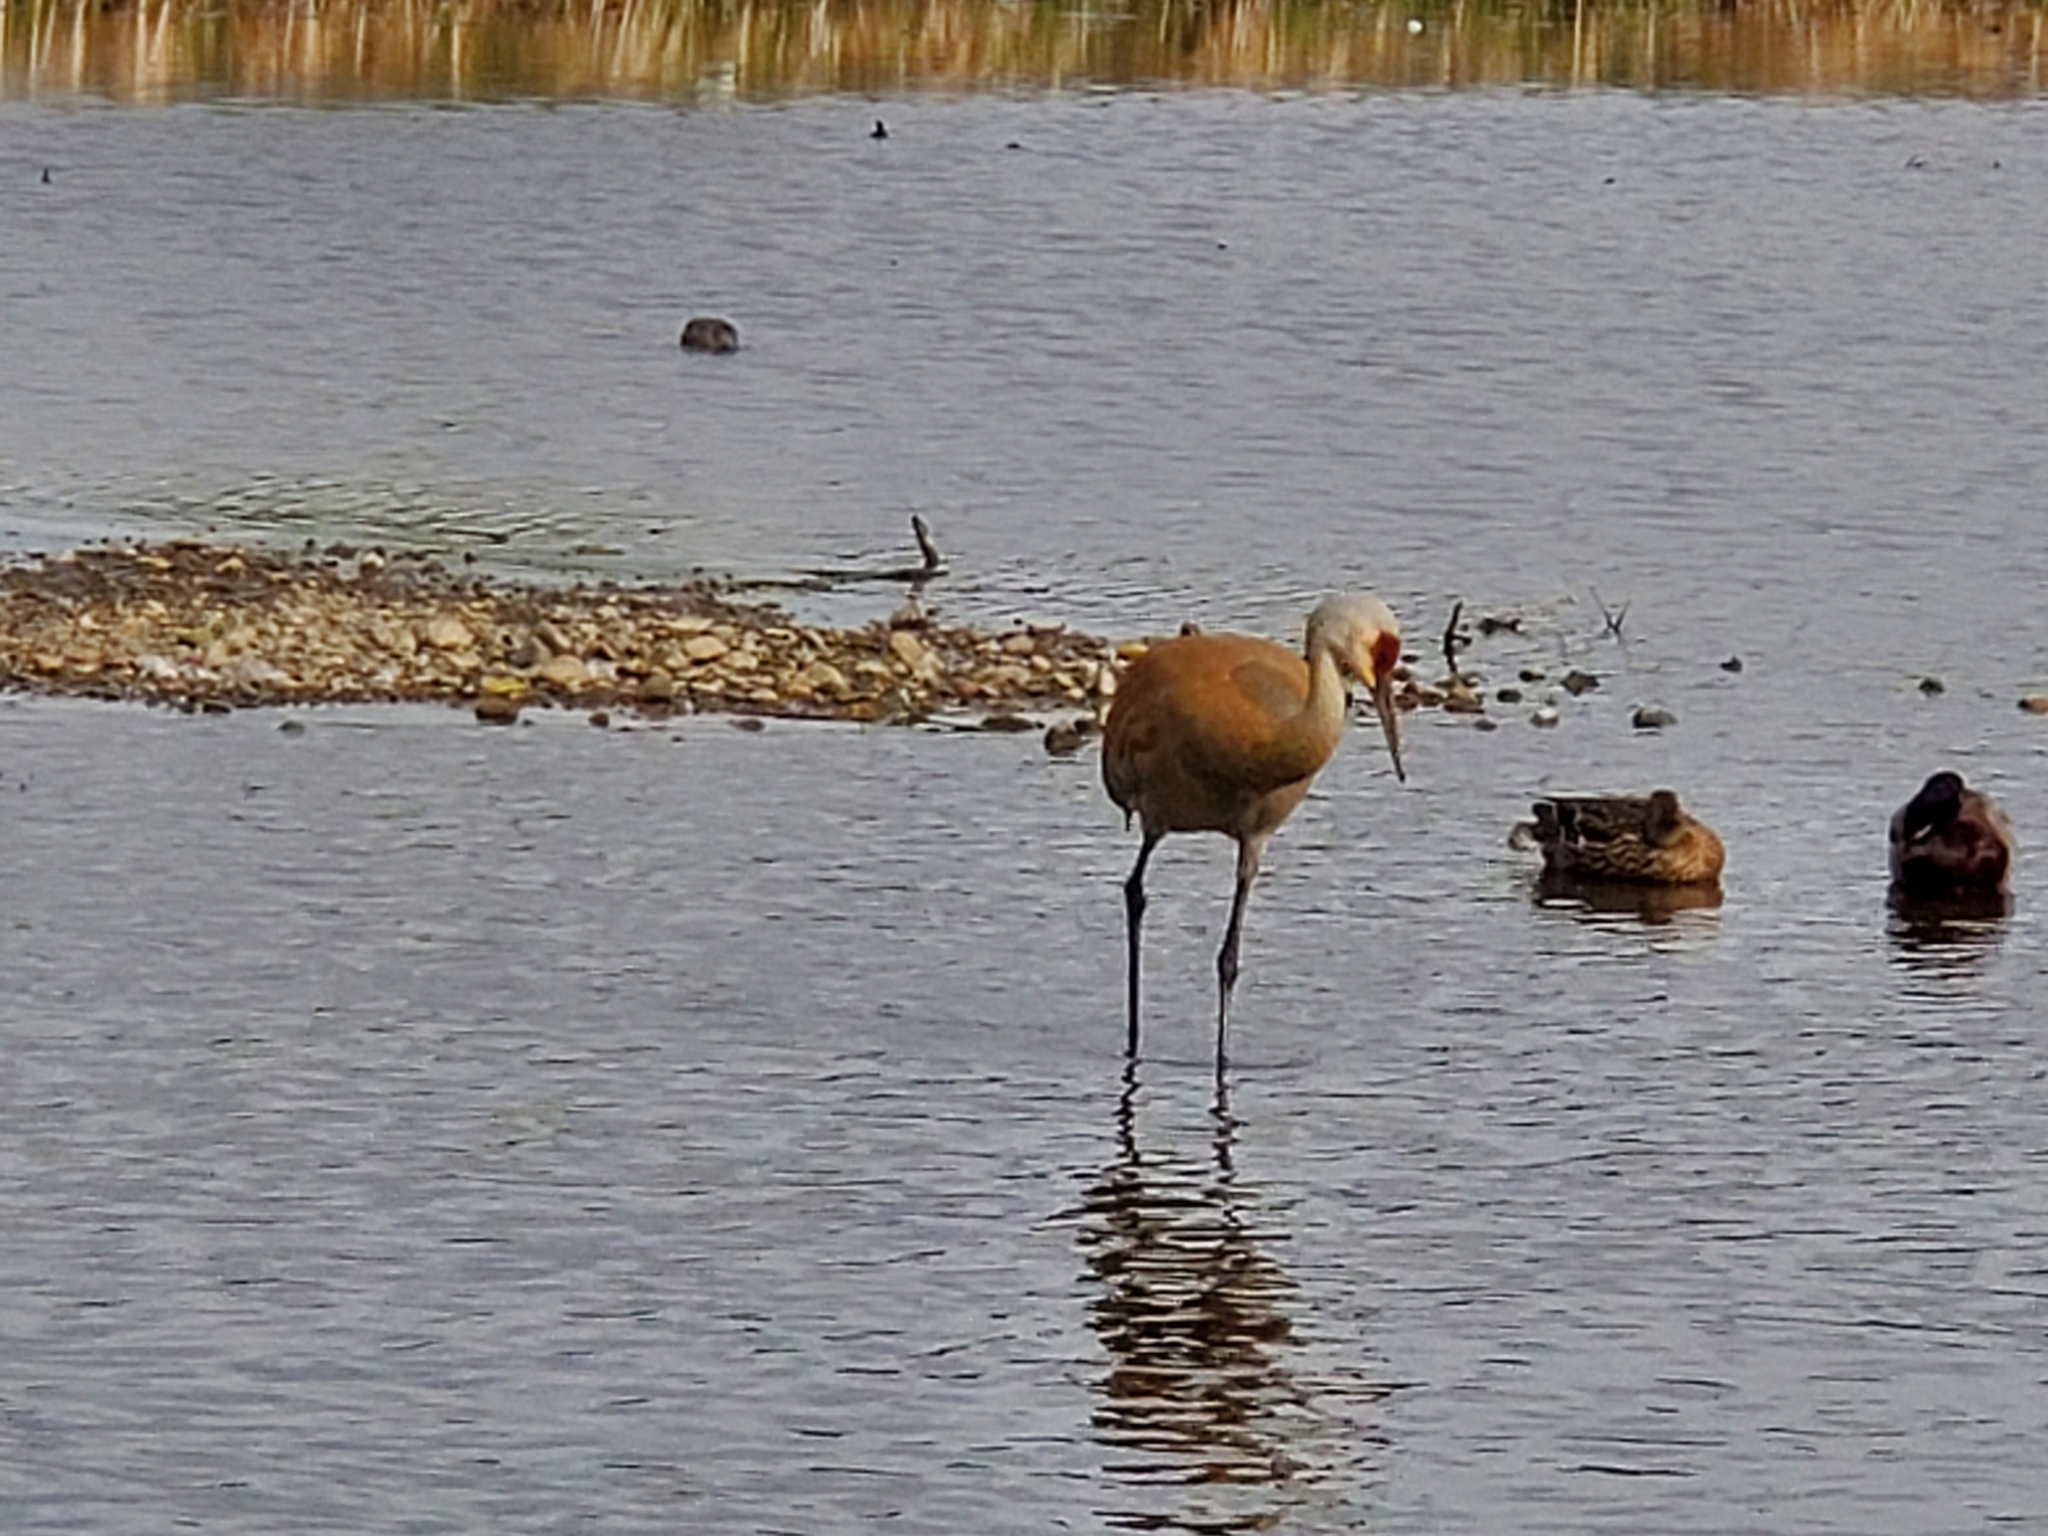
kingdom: Animalia
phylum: Chordata
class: Aves
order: Gruiformes
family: Gruidae
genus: Grus
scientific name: Grus canadensis
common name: Sandhill crane
